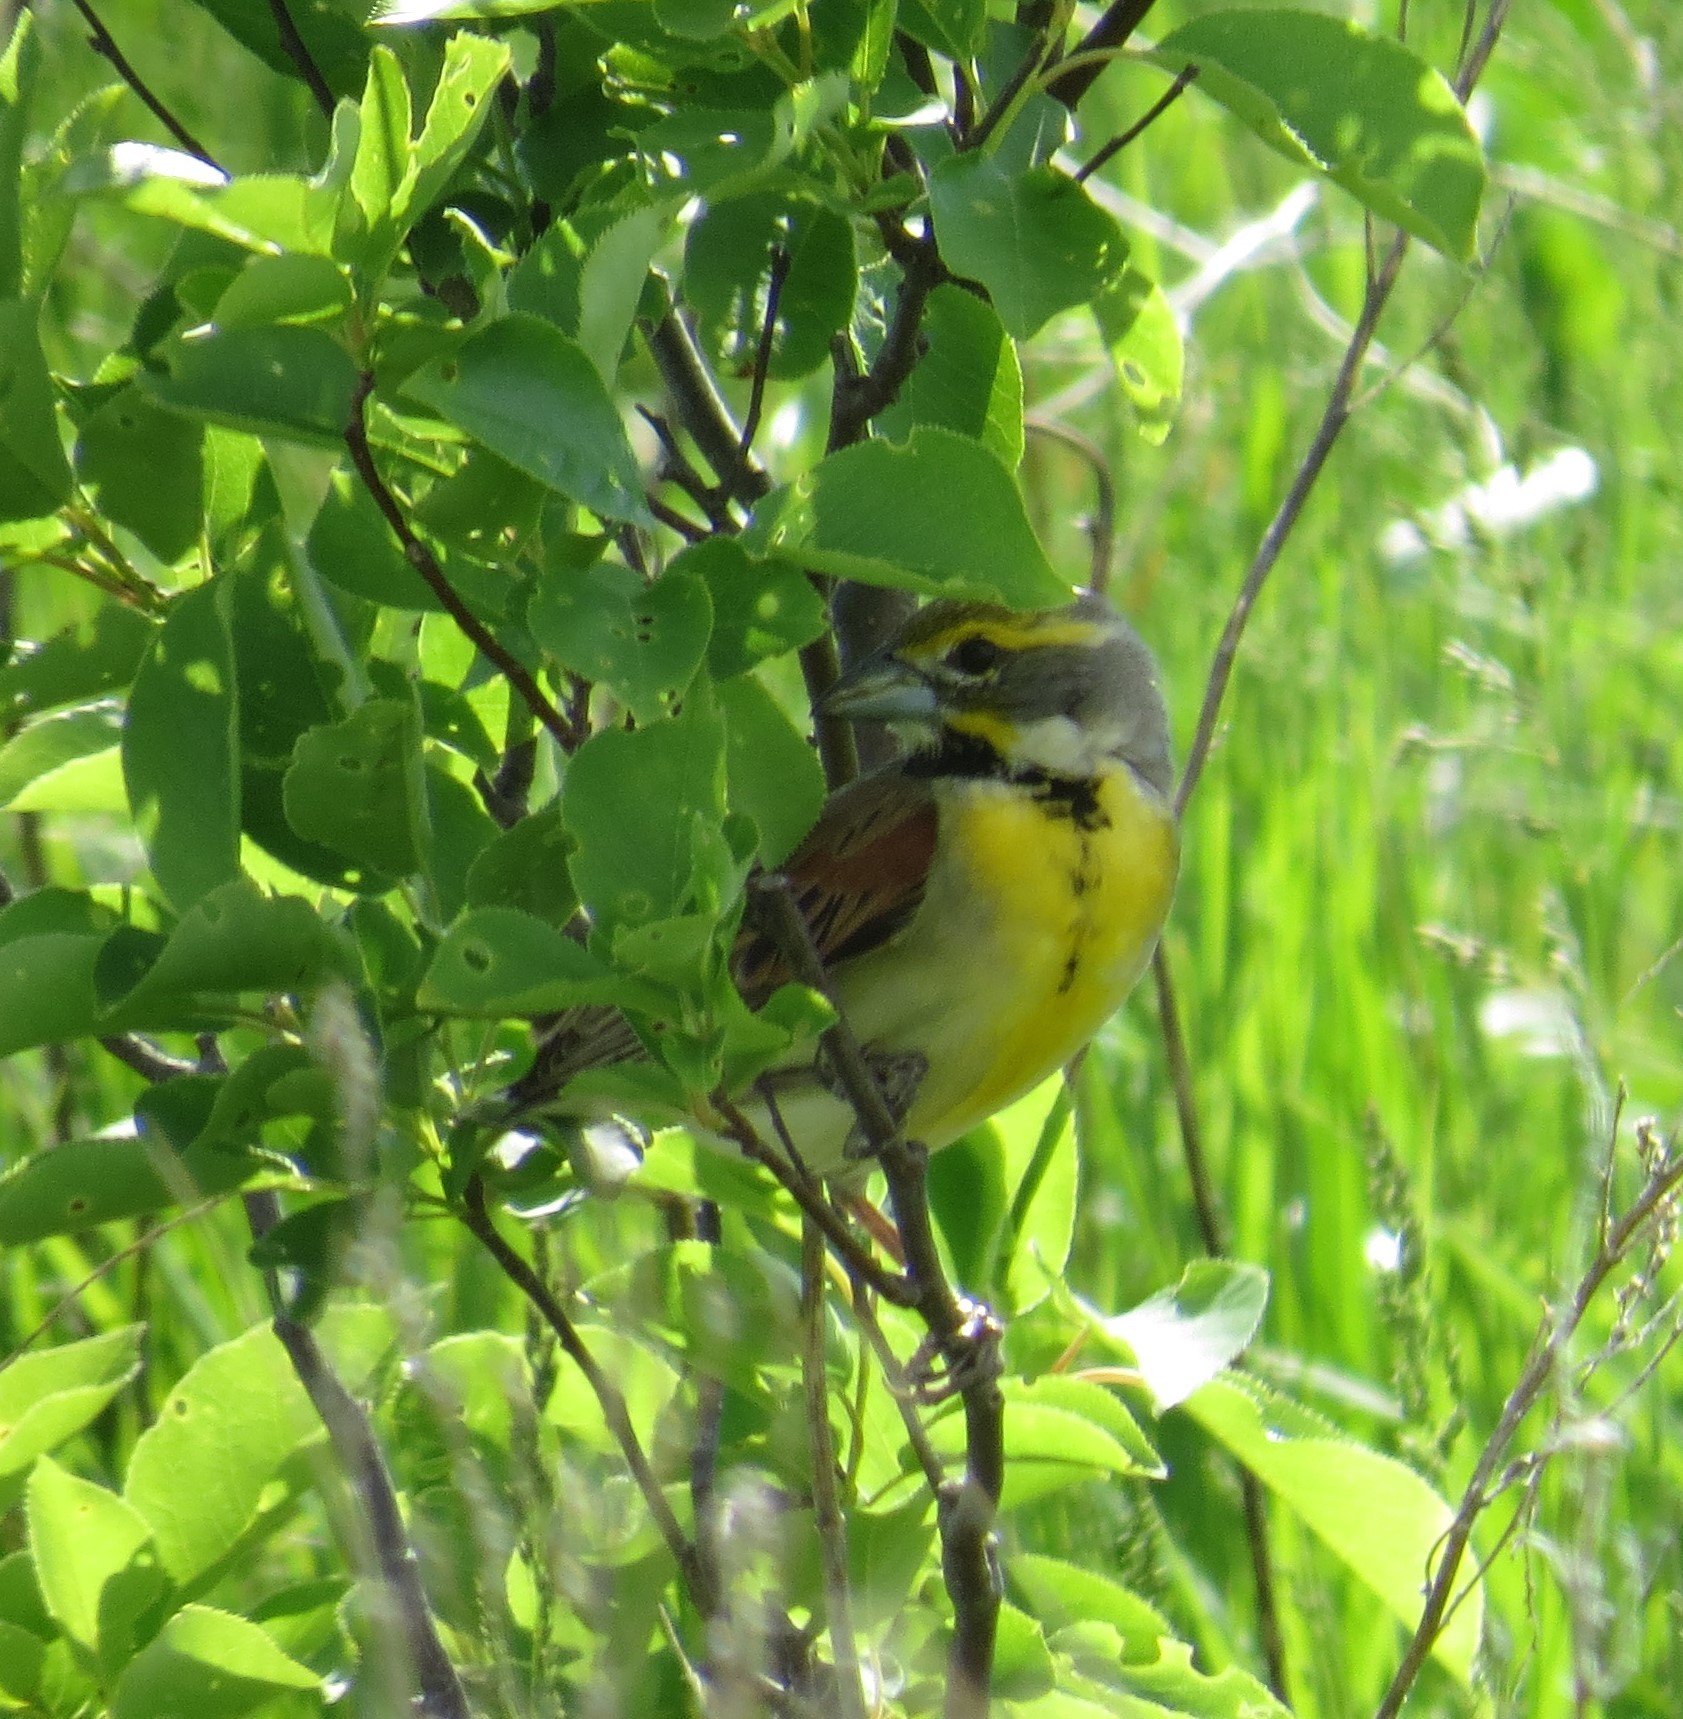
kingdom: Animalia
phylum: Chordata
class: Aves
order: Passeriformes
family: Cardinalidae
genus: Spiza
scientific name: Spiza americana
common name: Dickcissel
